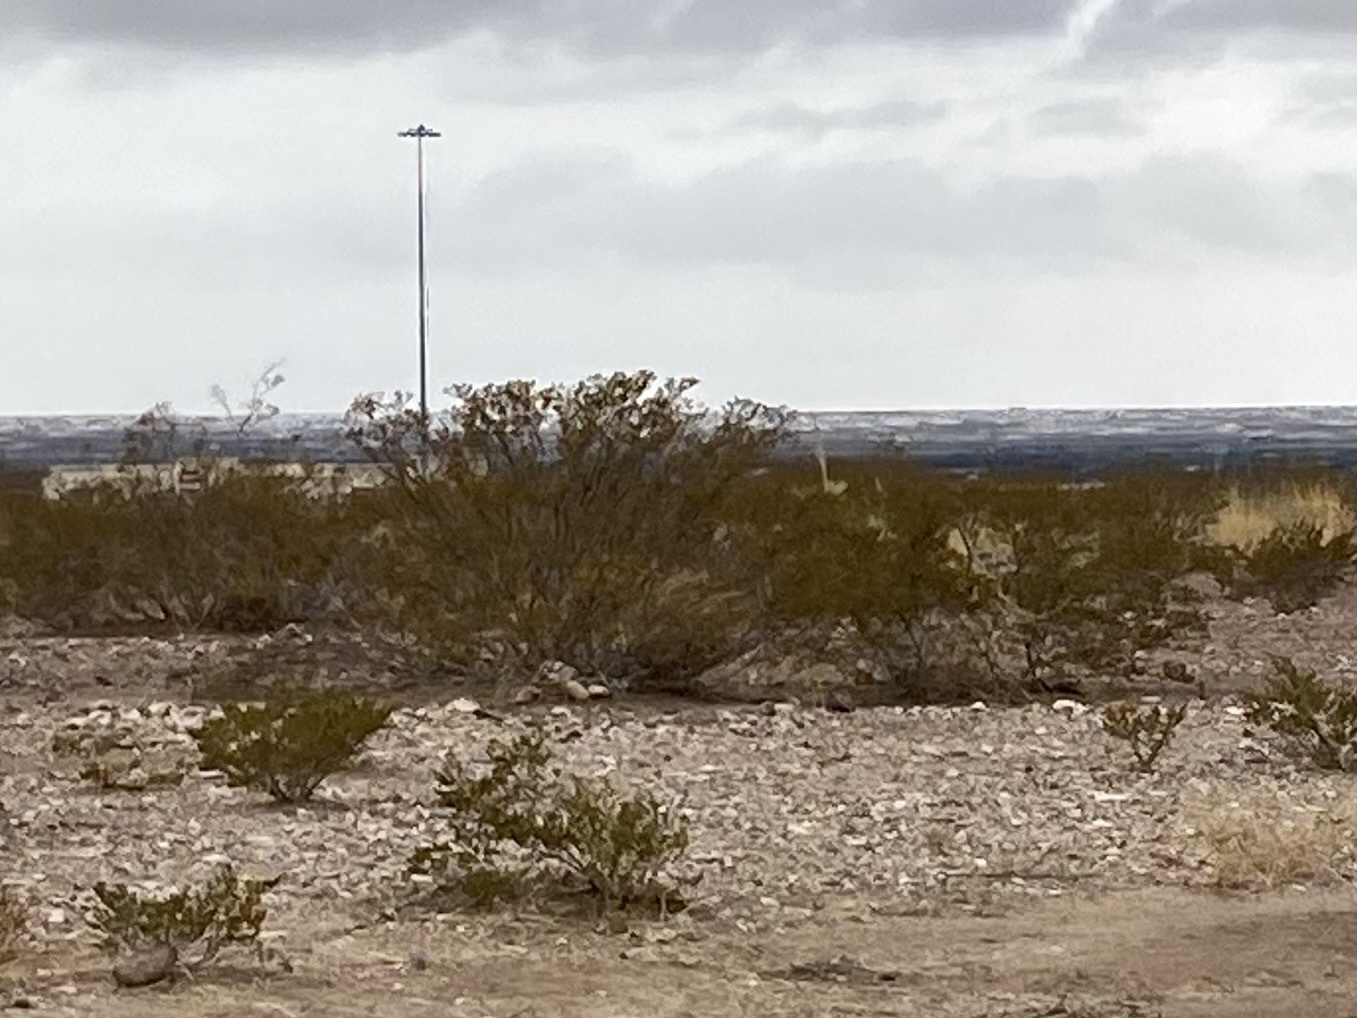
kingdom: Plantae
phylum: Tracheophyta
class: Magnoliopsida
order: Zygophyllales
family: Zygophyllaceae
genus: Larrea
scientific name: Larrea tridentata
